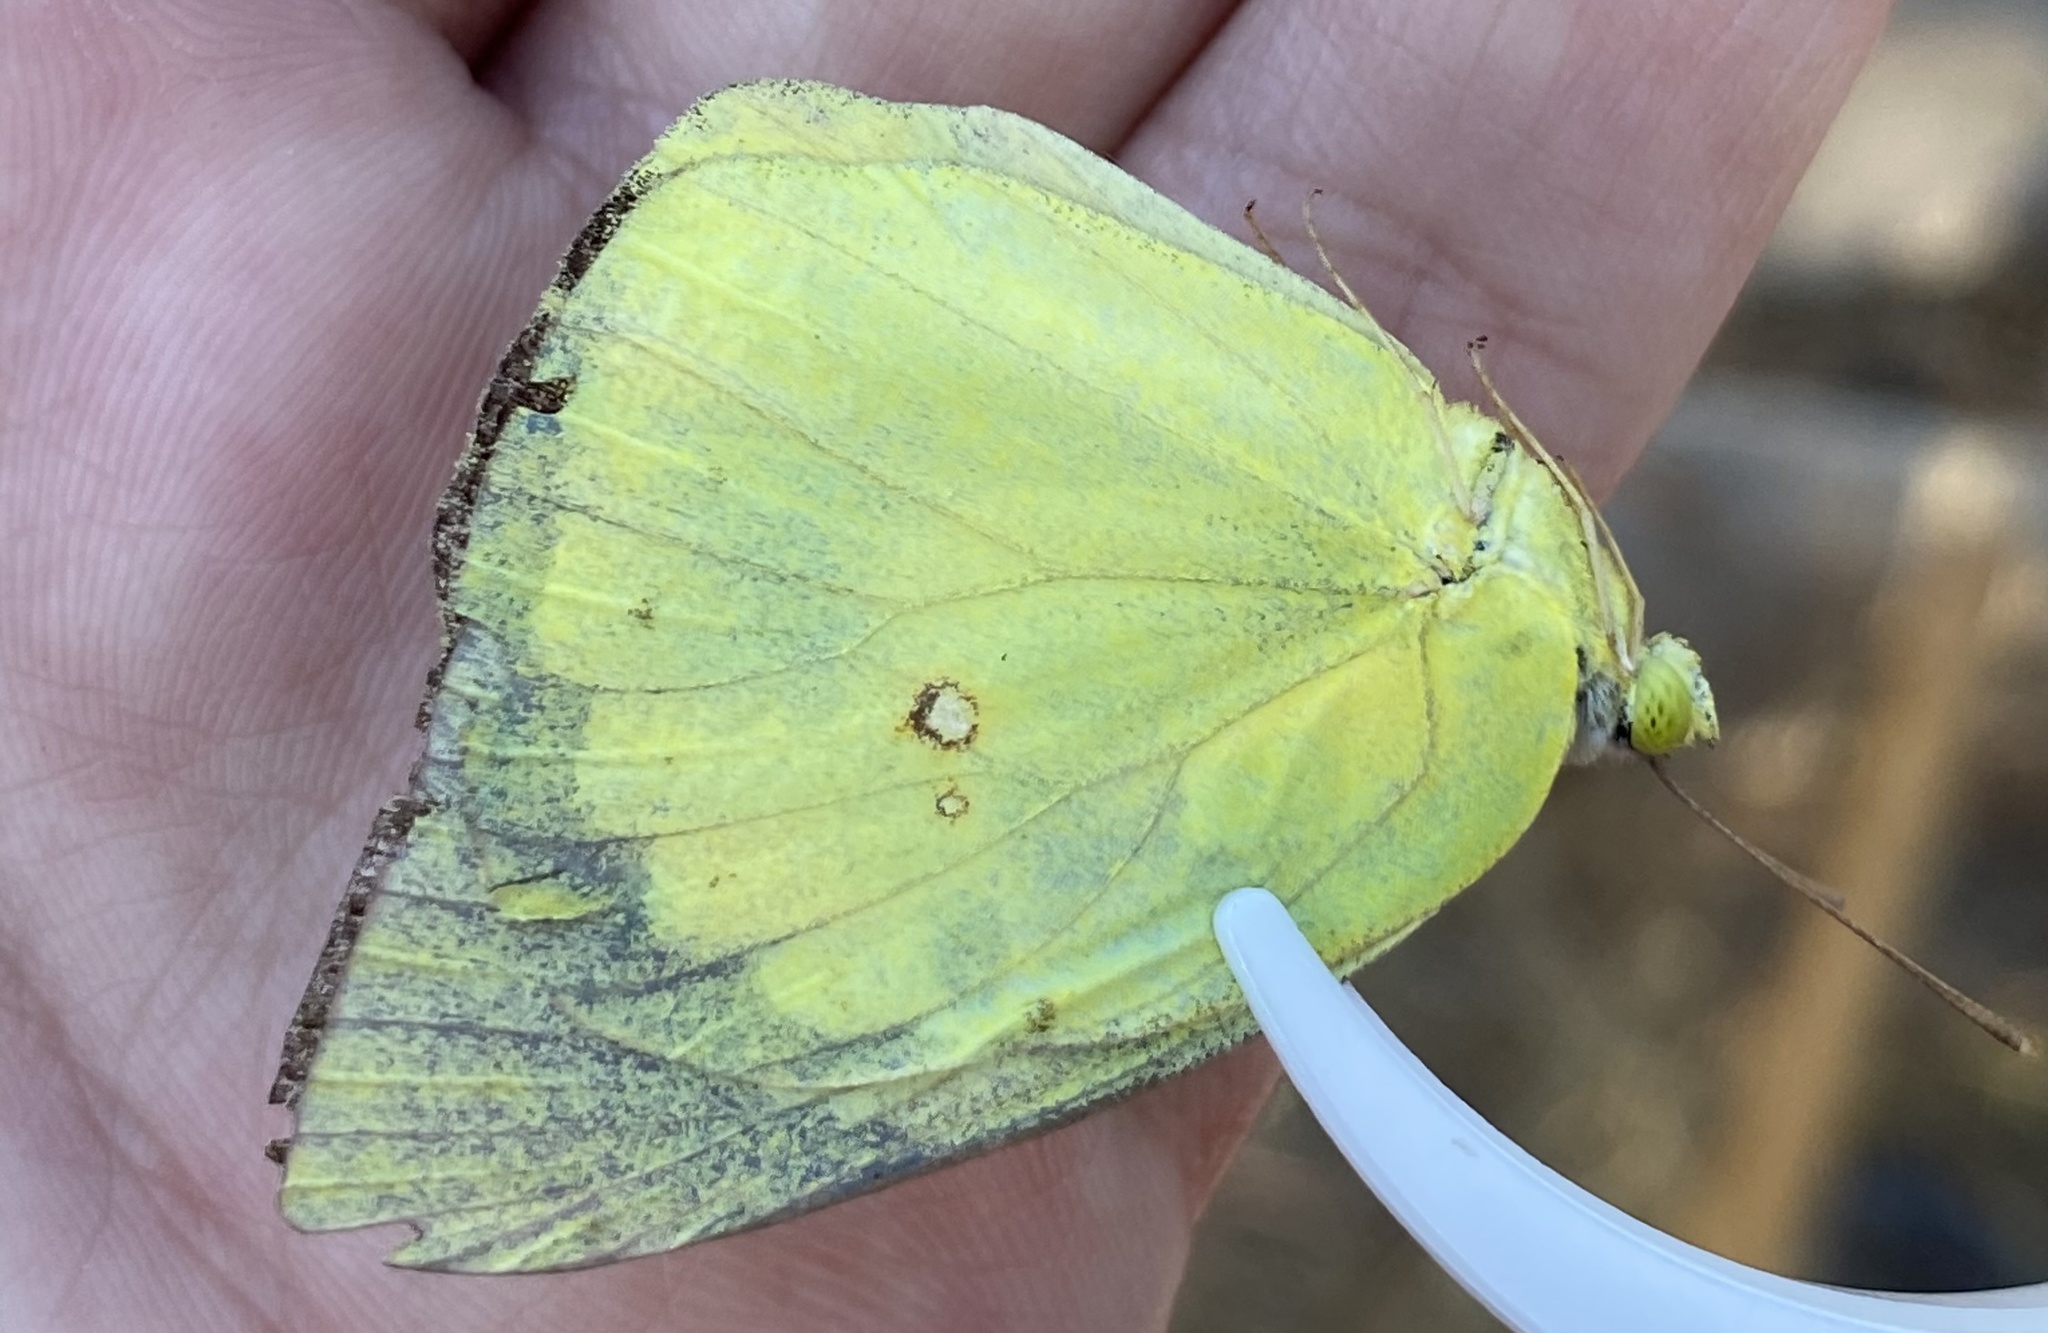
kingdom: Animalia
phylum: Arthropoda
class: Insecta
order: Lepidoptera
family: Pieridae
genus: Zerene
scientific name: Zerene cesonia
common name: Southern dogface
